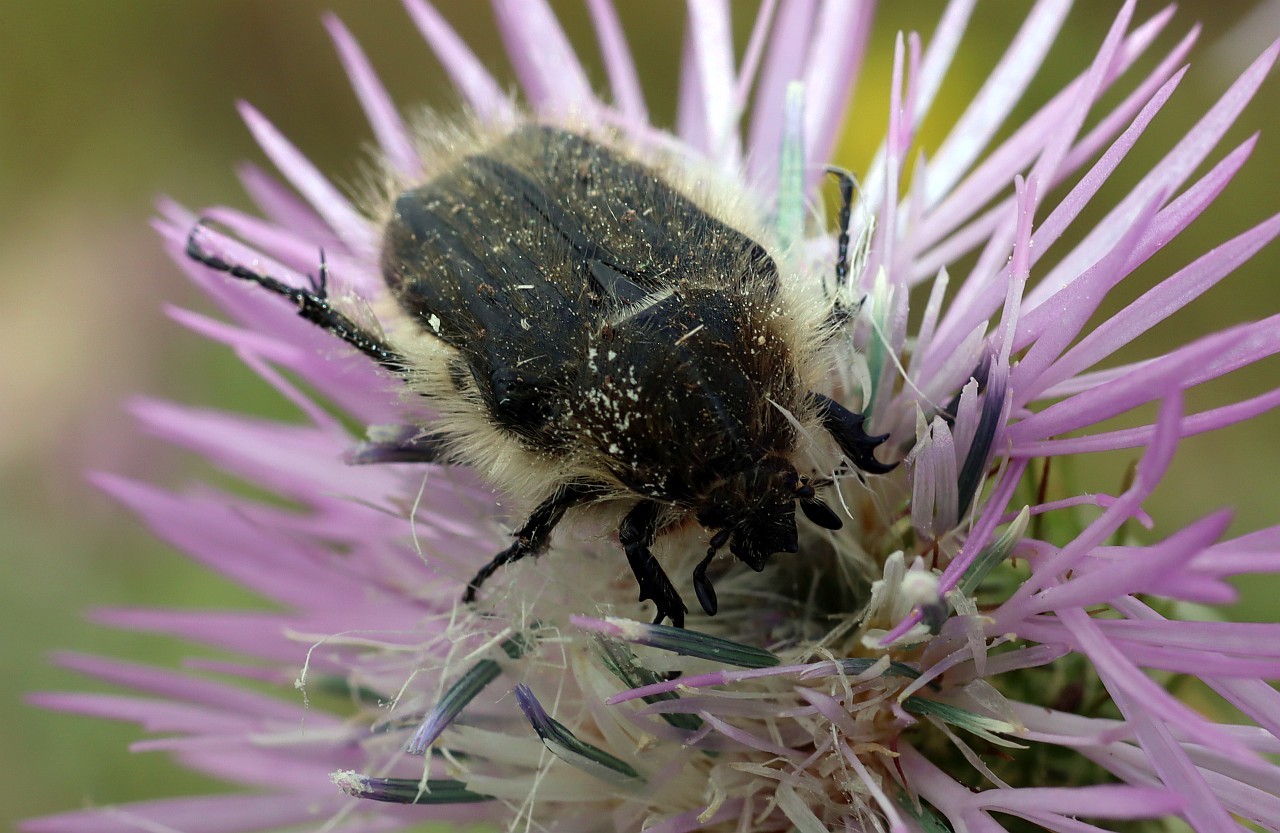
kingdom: Animalia
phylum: Arthropoda
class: Insecta
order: Coleoptera
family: Scarabaeidae
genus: Tropinota
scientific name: Tropinota squalida
